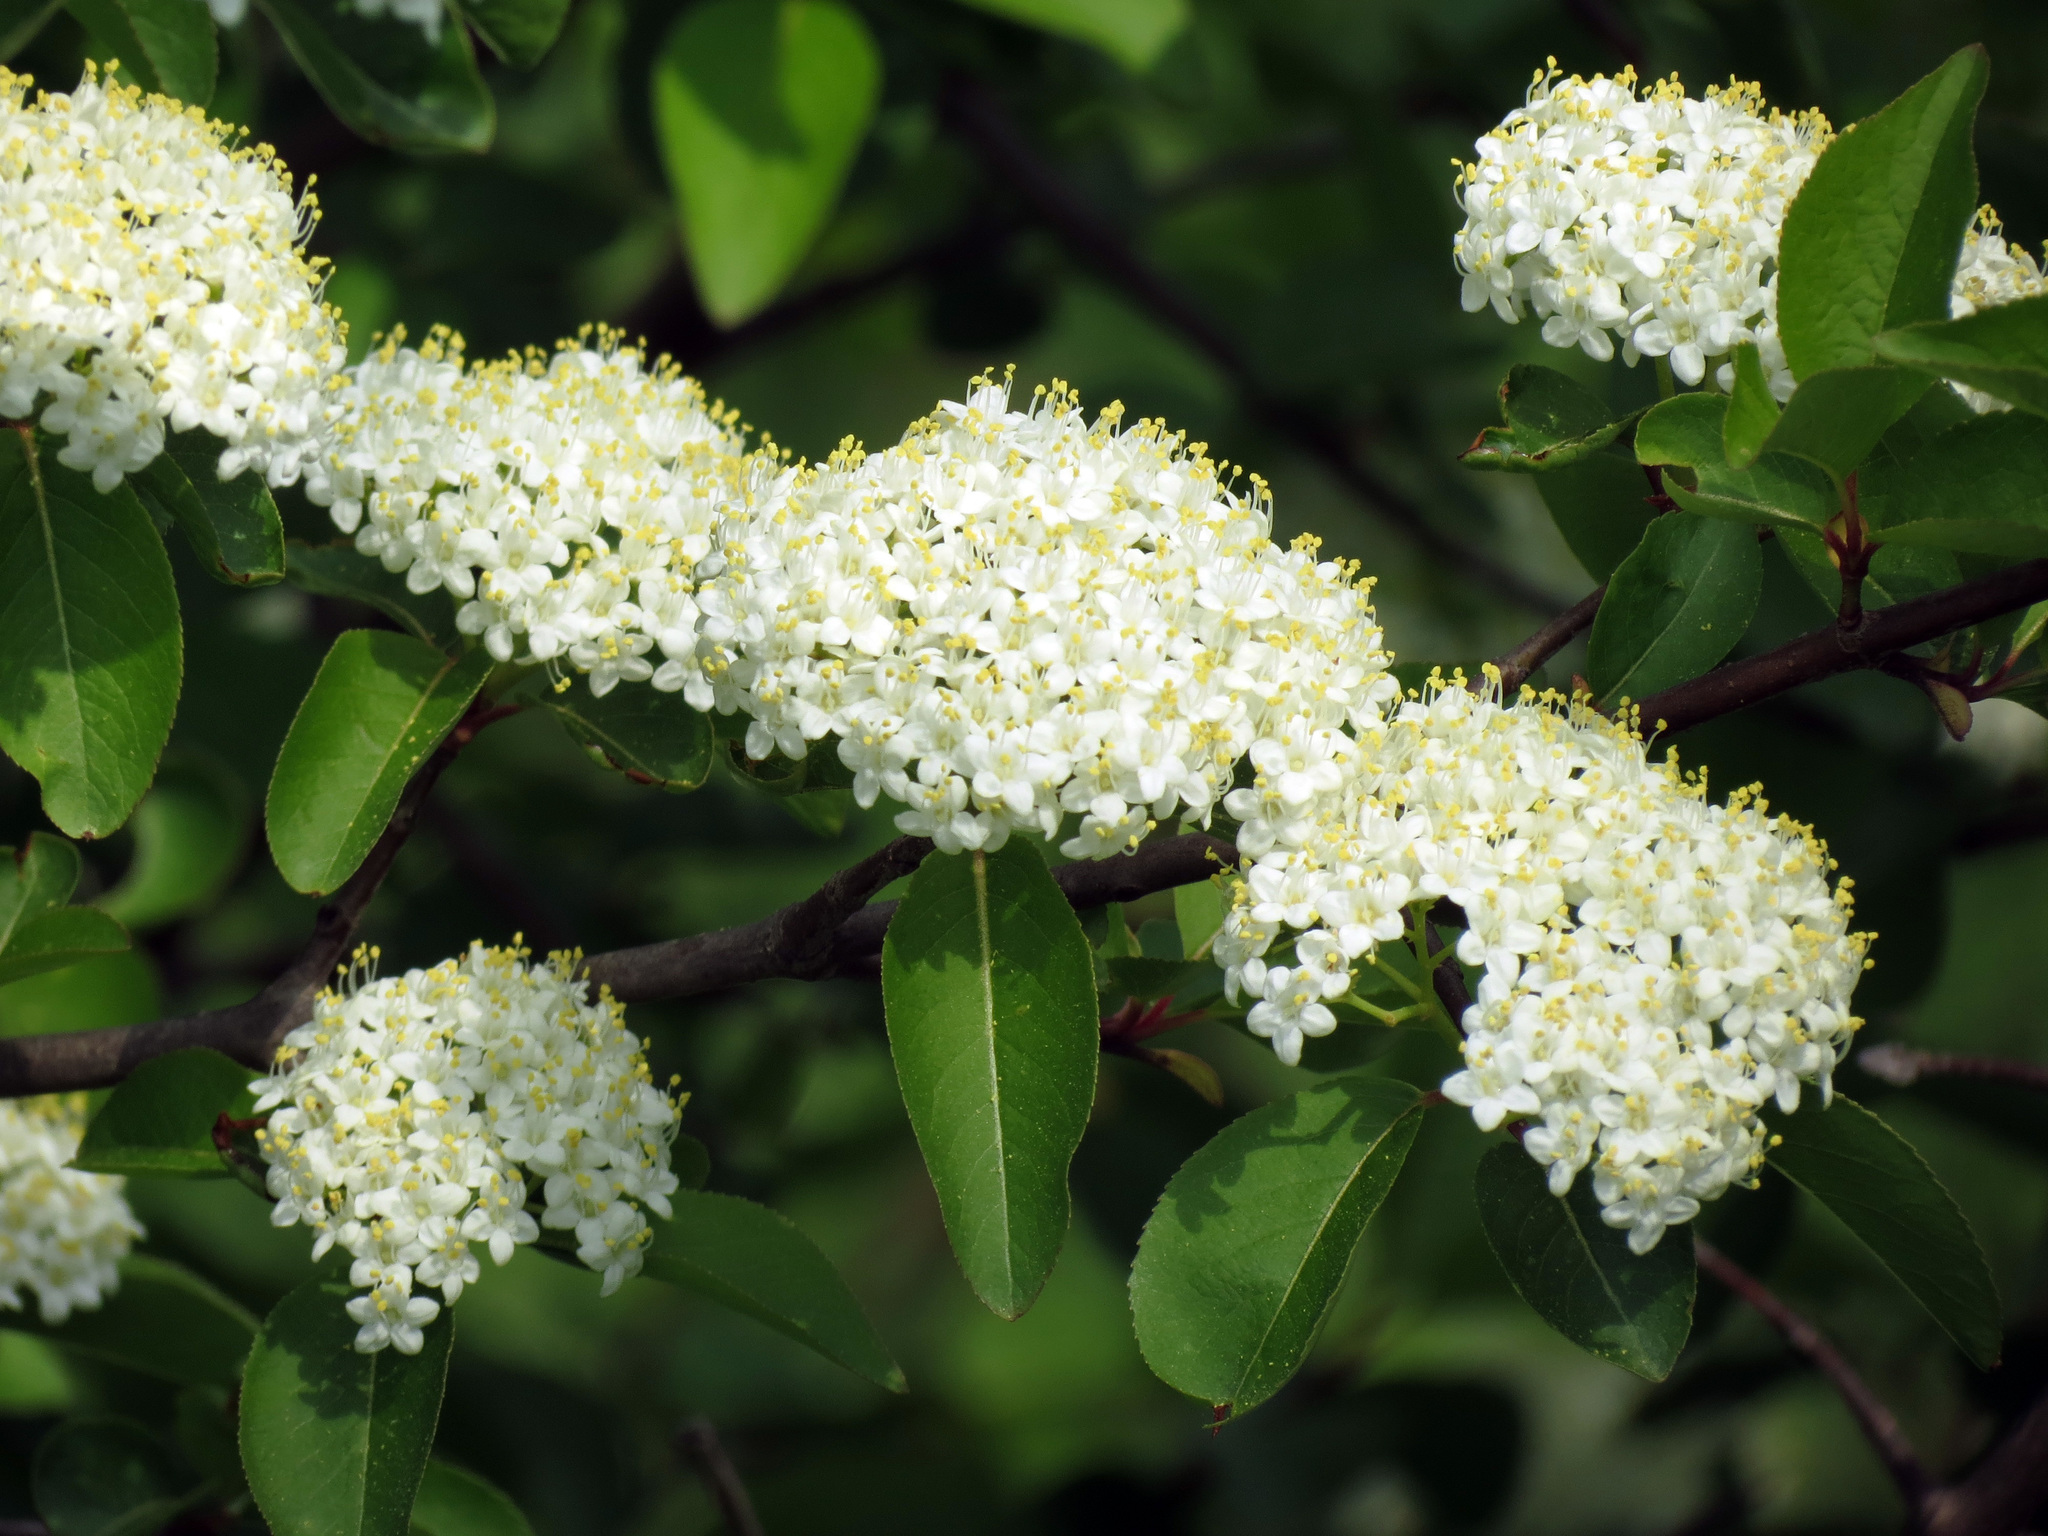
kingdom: Plantae
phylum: Tracheophyta
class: Magnoliopsida
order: Dipsacales
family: Viburnaceae
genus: Viburnum
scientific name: Viburnum prunifolium
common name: Black haw
